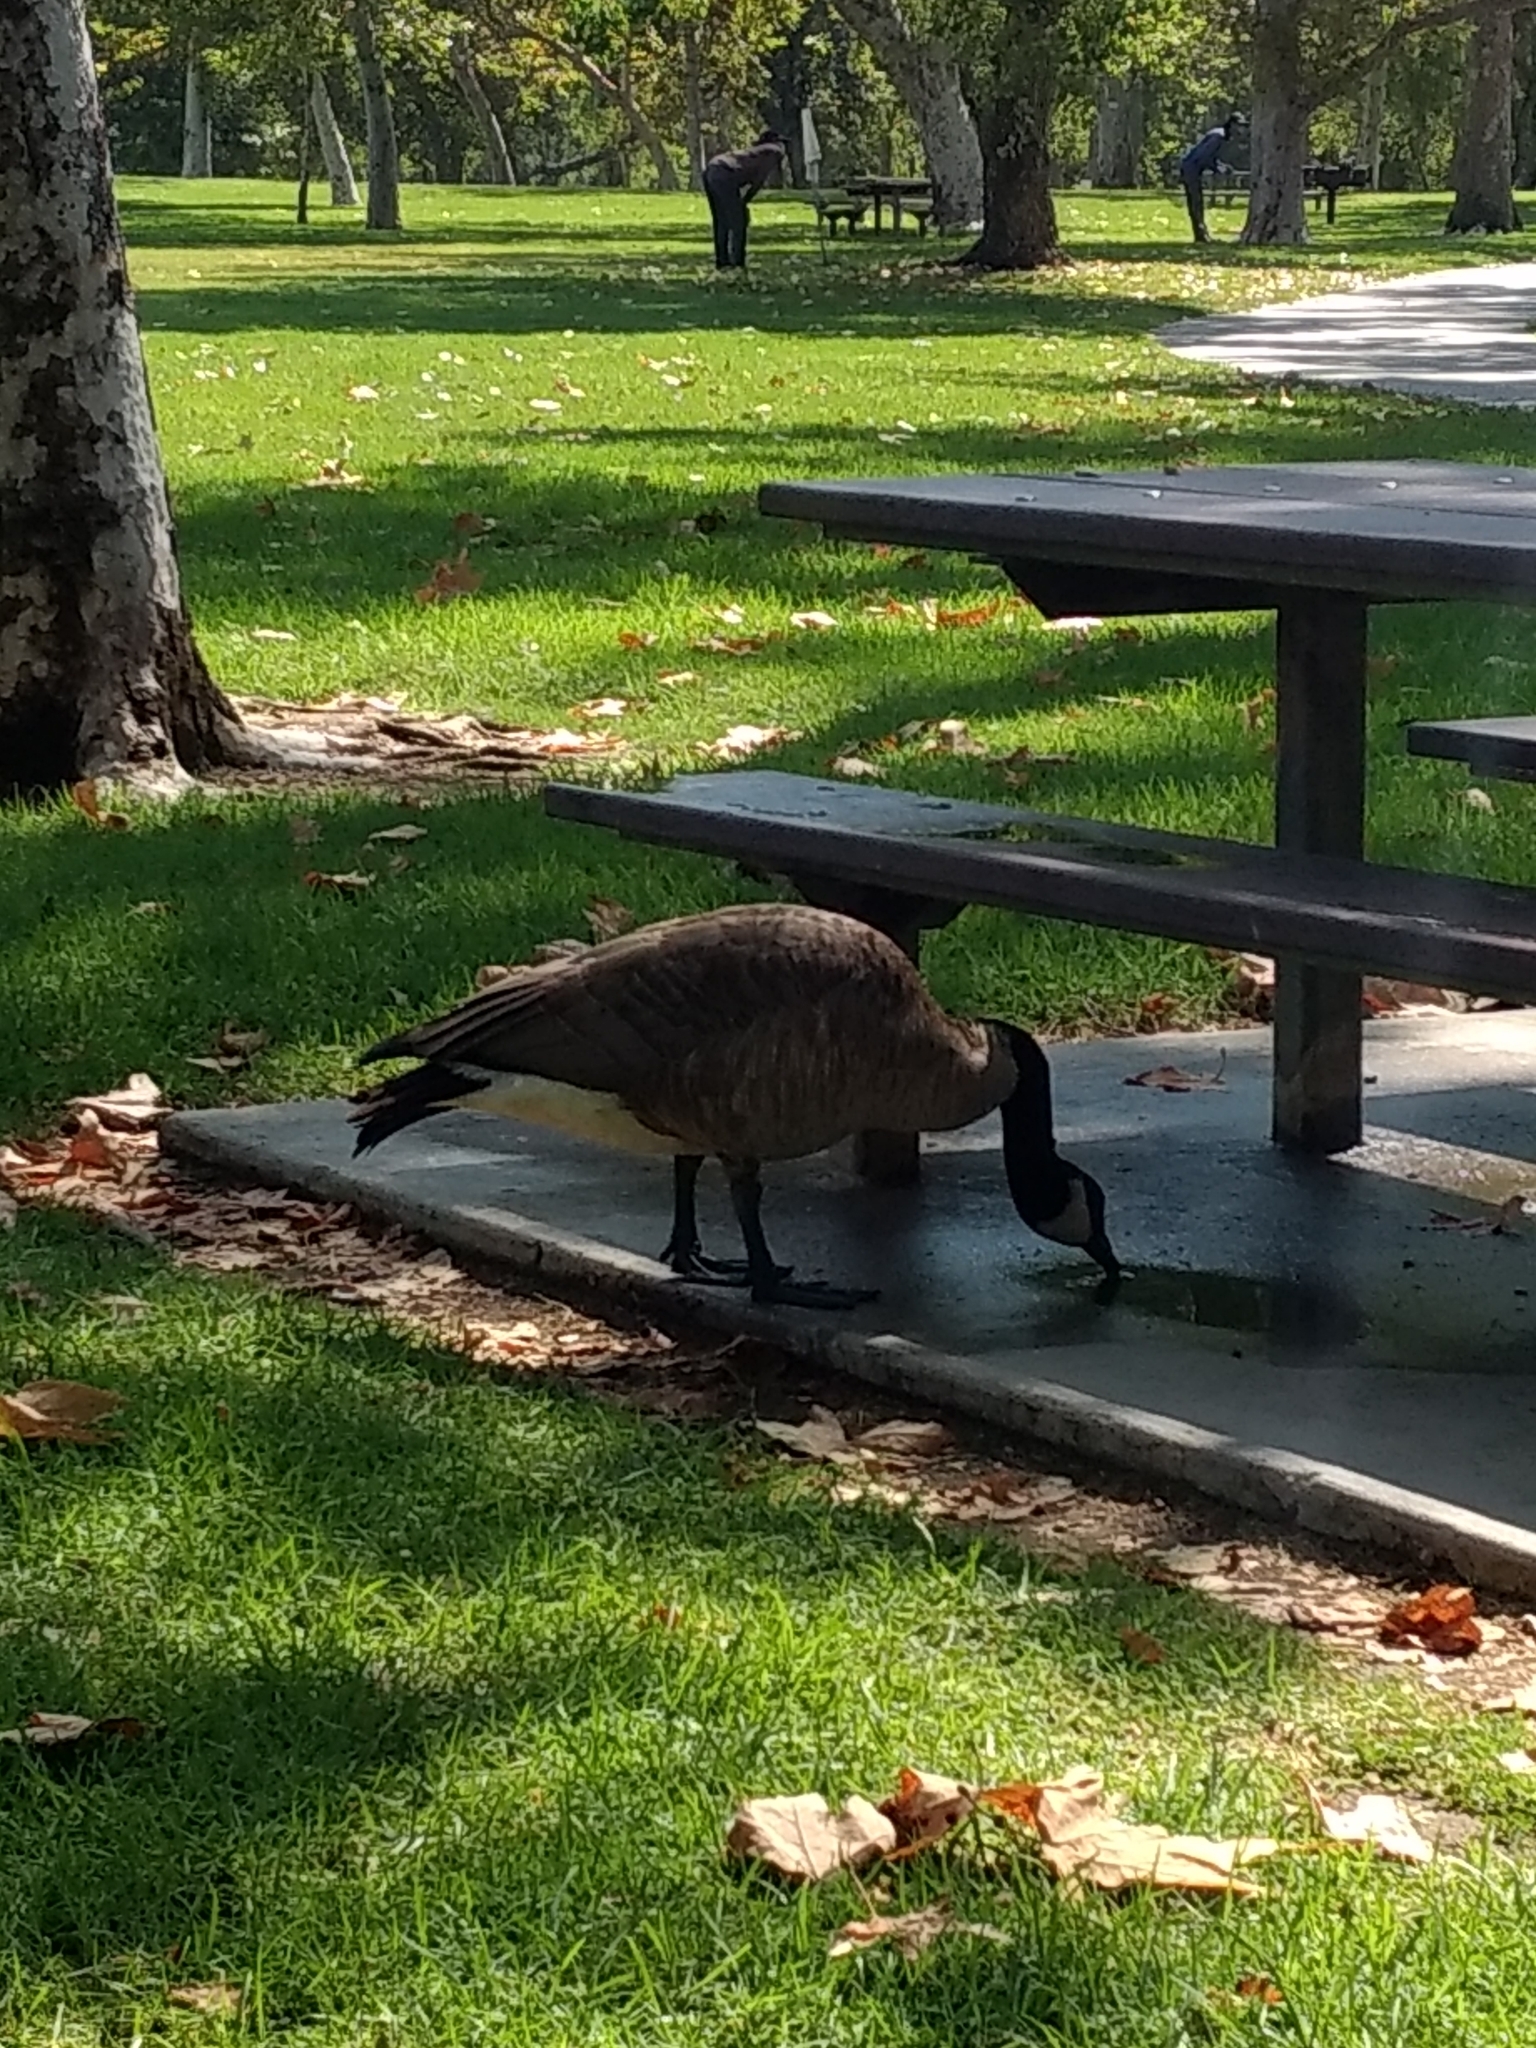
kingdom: Animalia
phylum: Chordata
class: Aves
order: Anseriformes
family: Anatidae
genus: Branta
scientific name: Branta canadensis
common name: Canada goose
